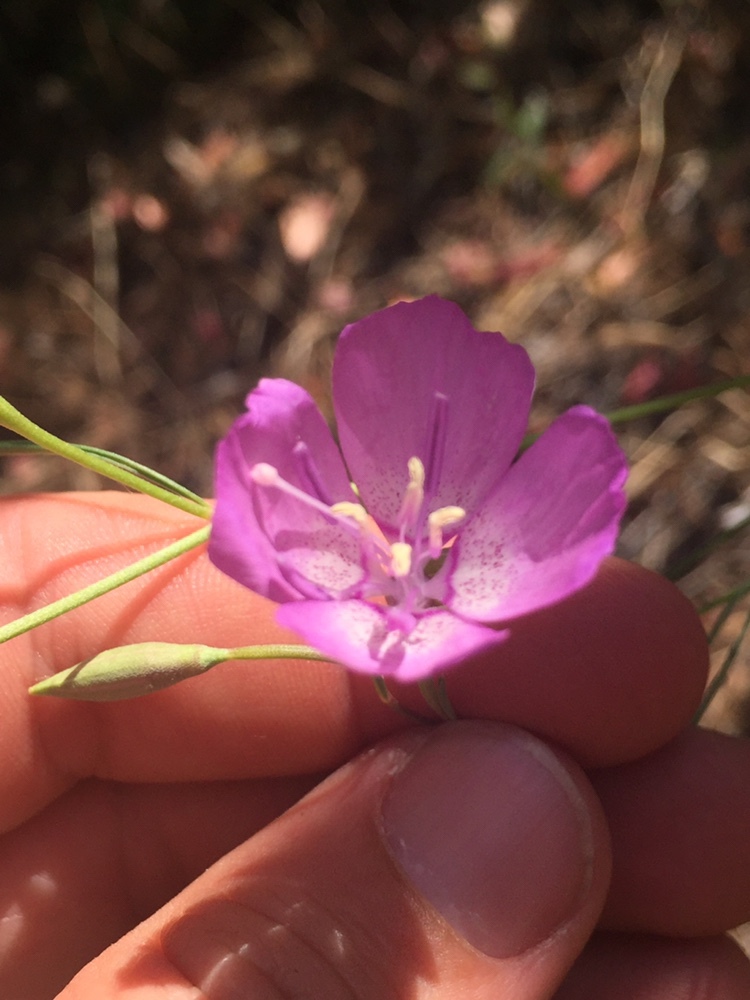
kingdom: Plantae
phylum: Tracheophyta
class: Magnoliopsida
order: Myrtales
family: Onagraceae
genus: Clarkia
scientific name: Clarkia cylindrica
